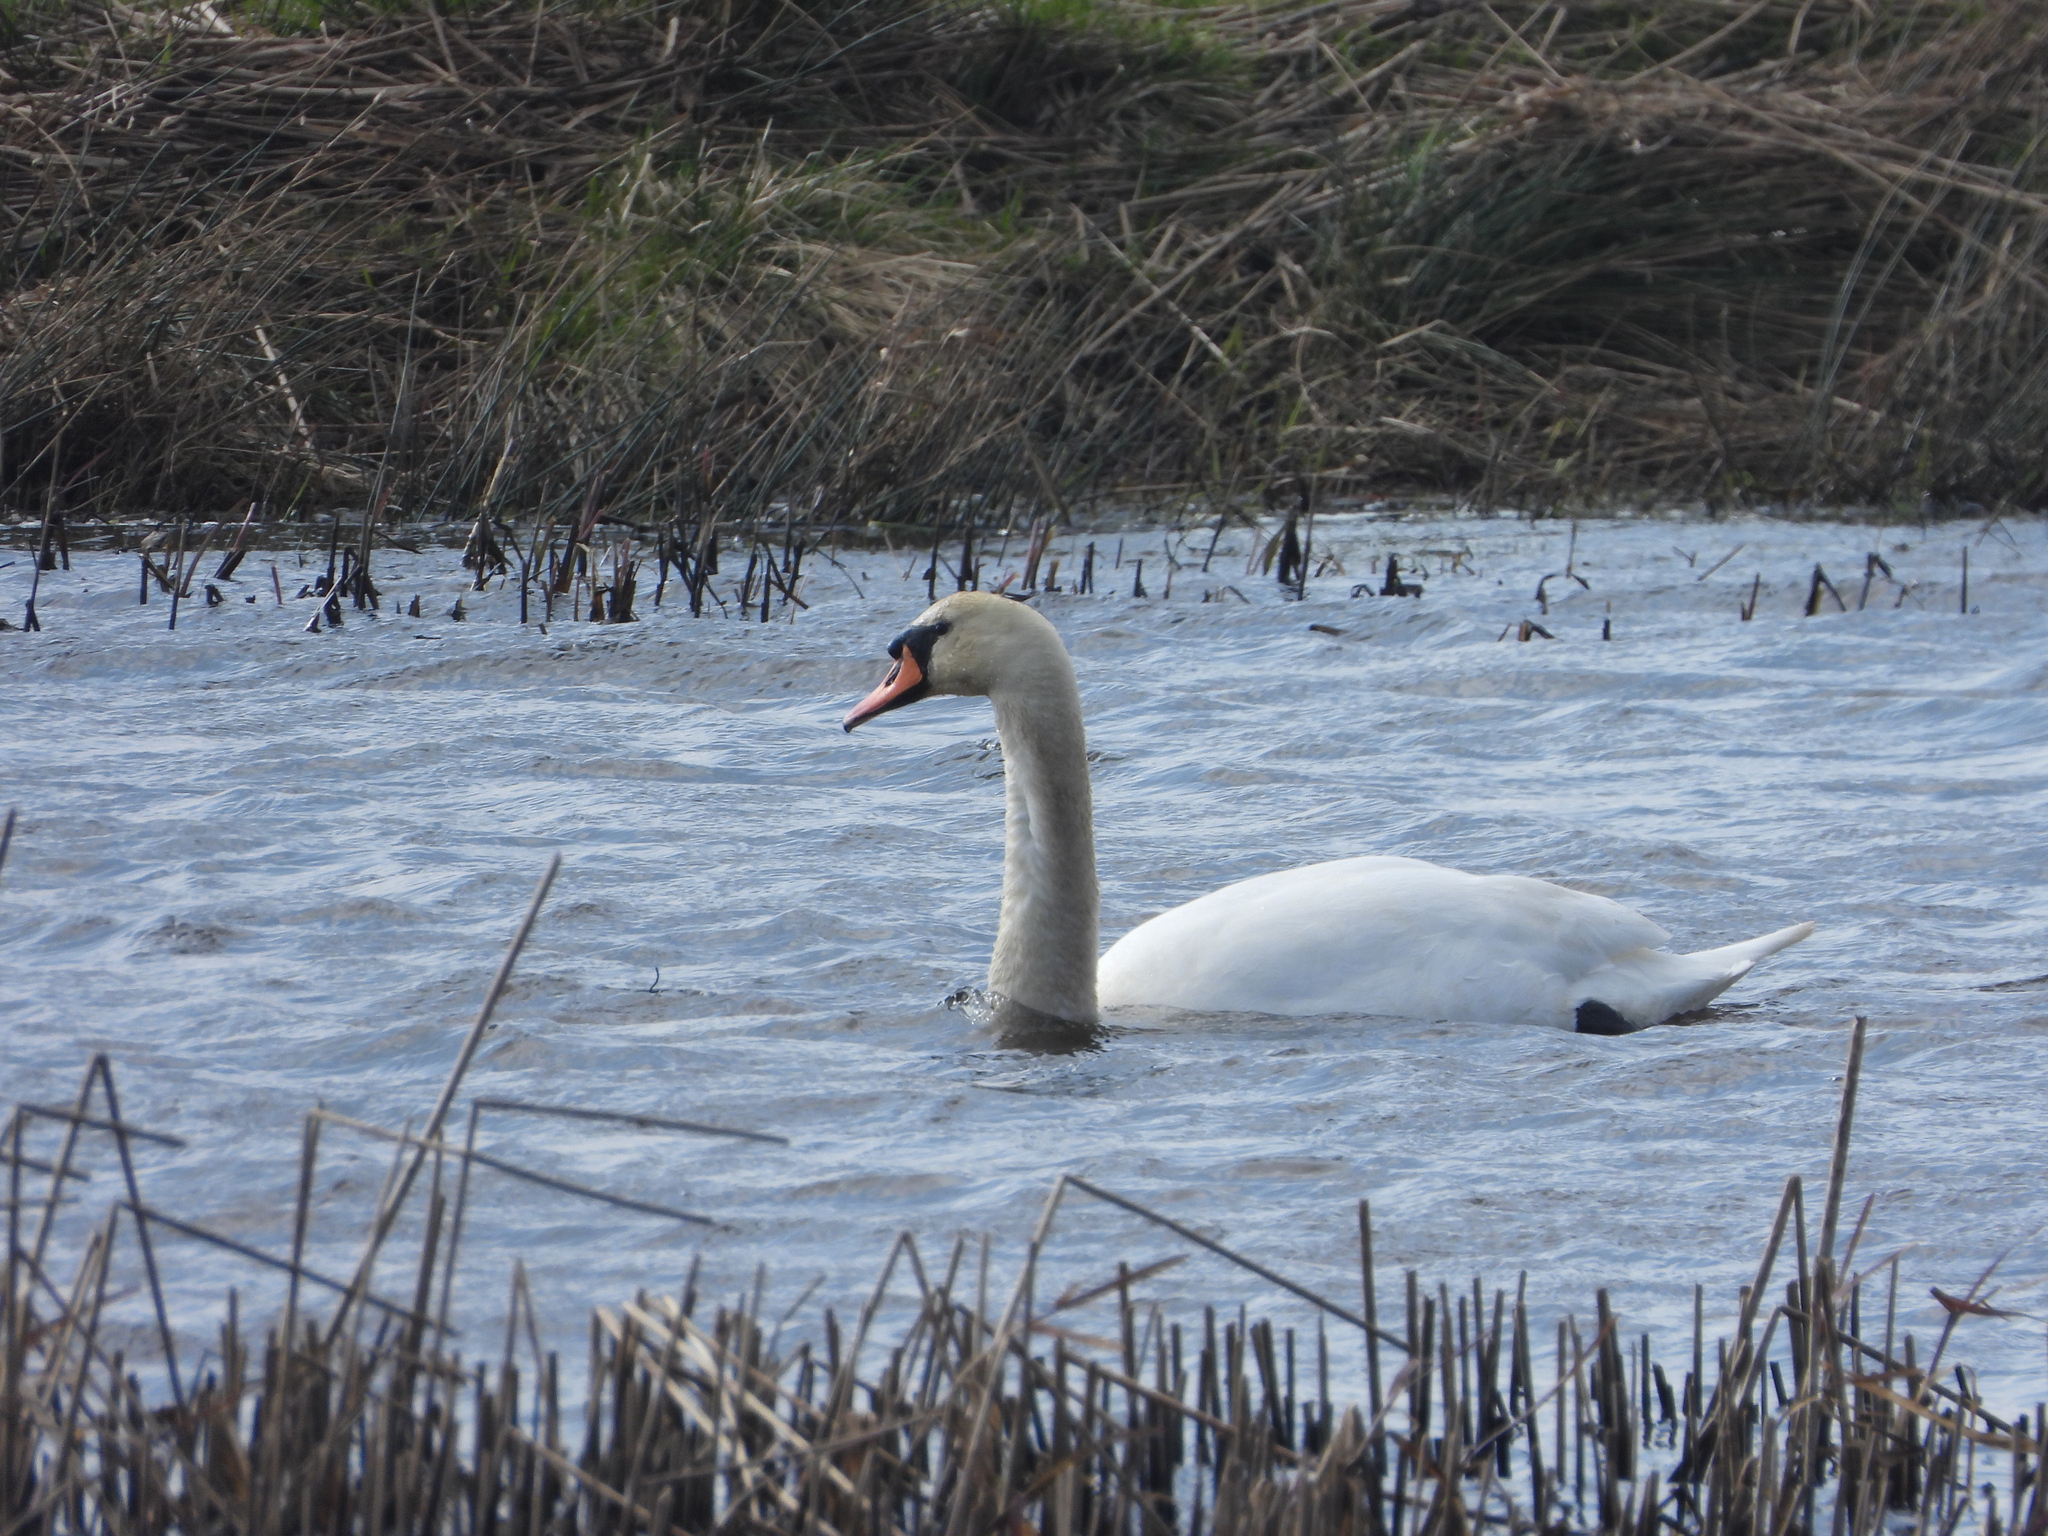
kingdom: Animalia
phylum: Chordata
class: Aves
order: Anseriformes
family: Anatidae
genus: Cygnus
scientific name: Cygnus olor
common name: Mute swan
